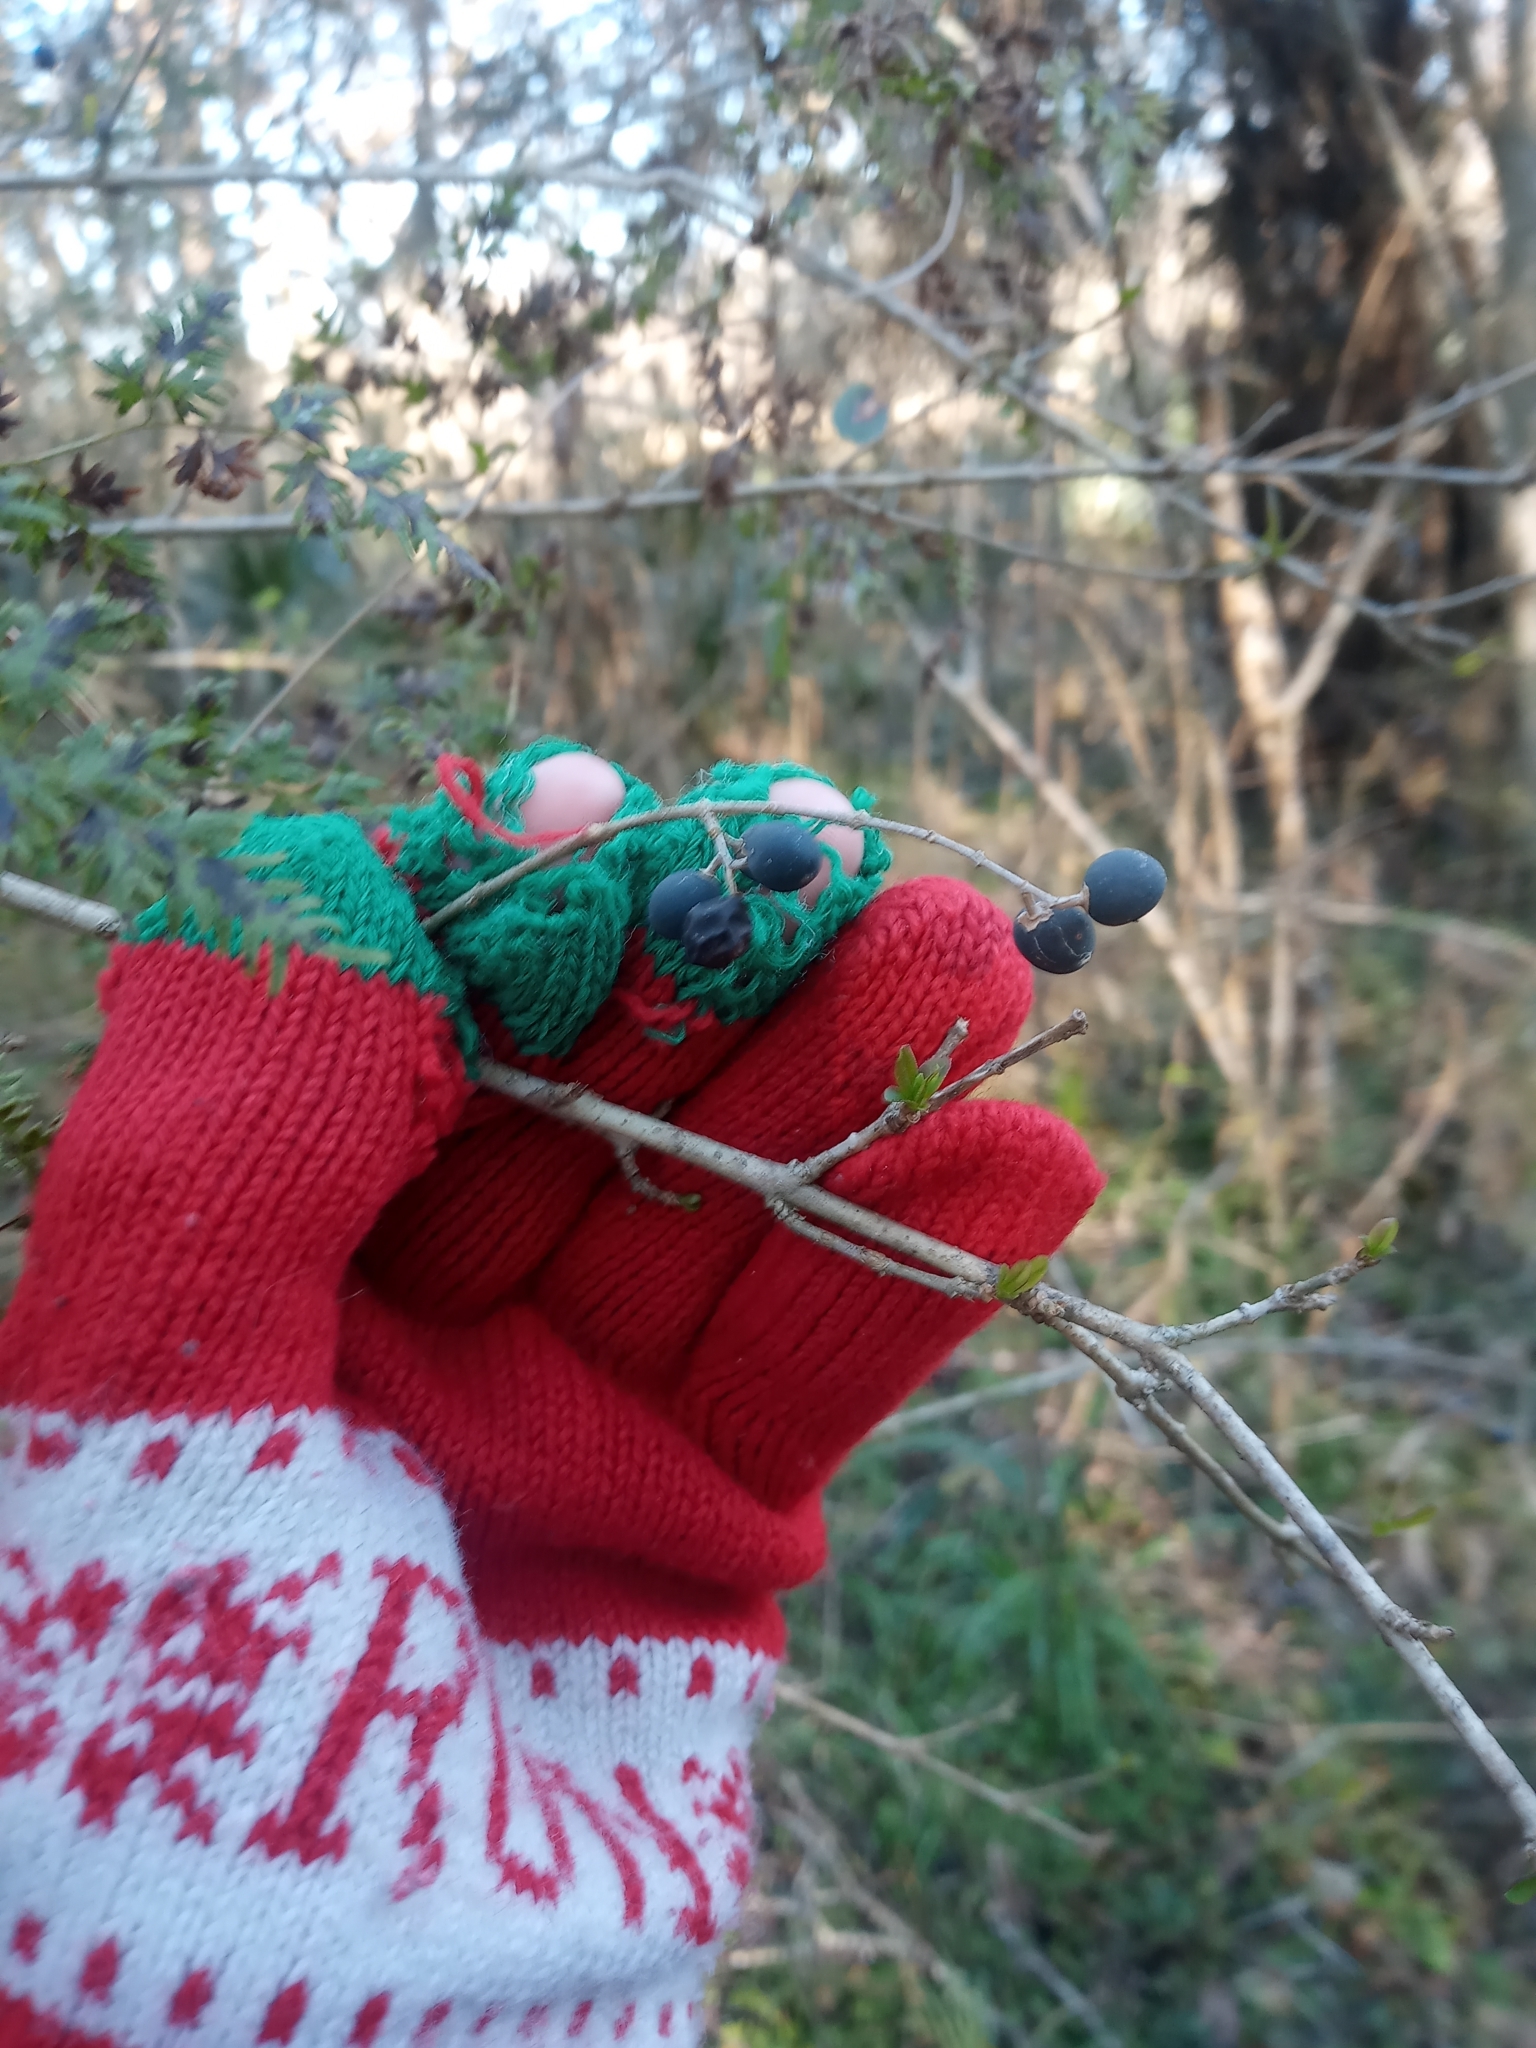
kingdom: Plantae
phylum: Tracheophyta
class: Magnoliopsida
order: Lamiales
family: Oleaceae
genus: Ligustrum
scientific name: Ligustrum sinense
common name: Chinese privet
